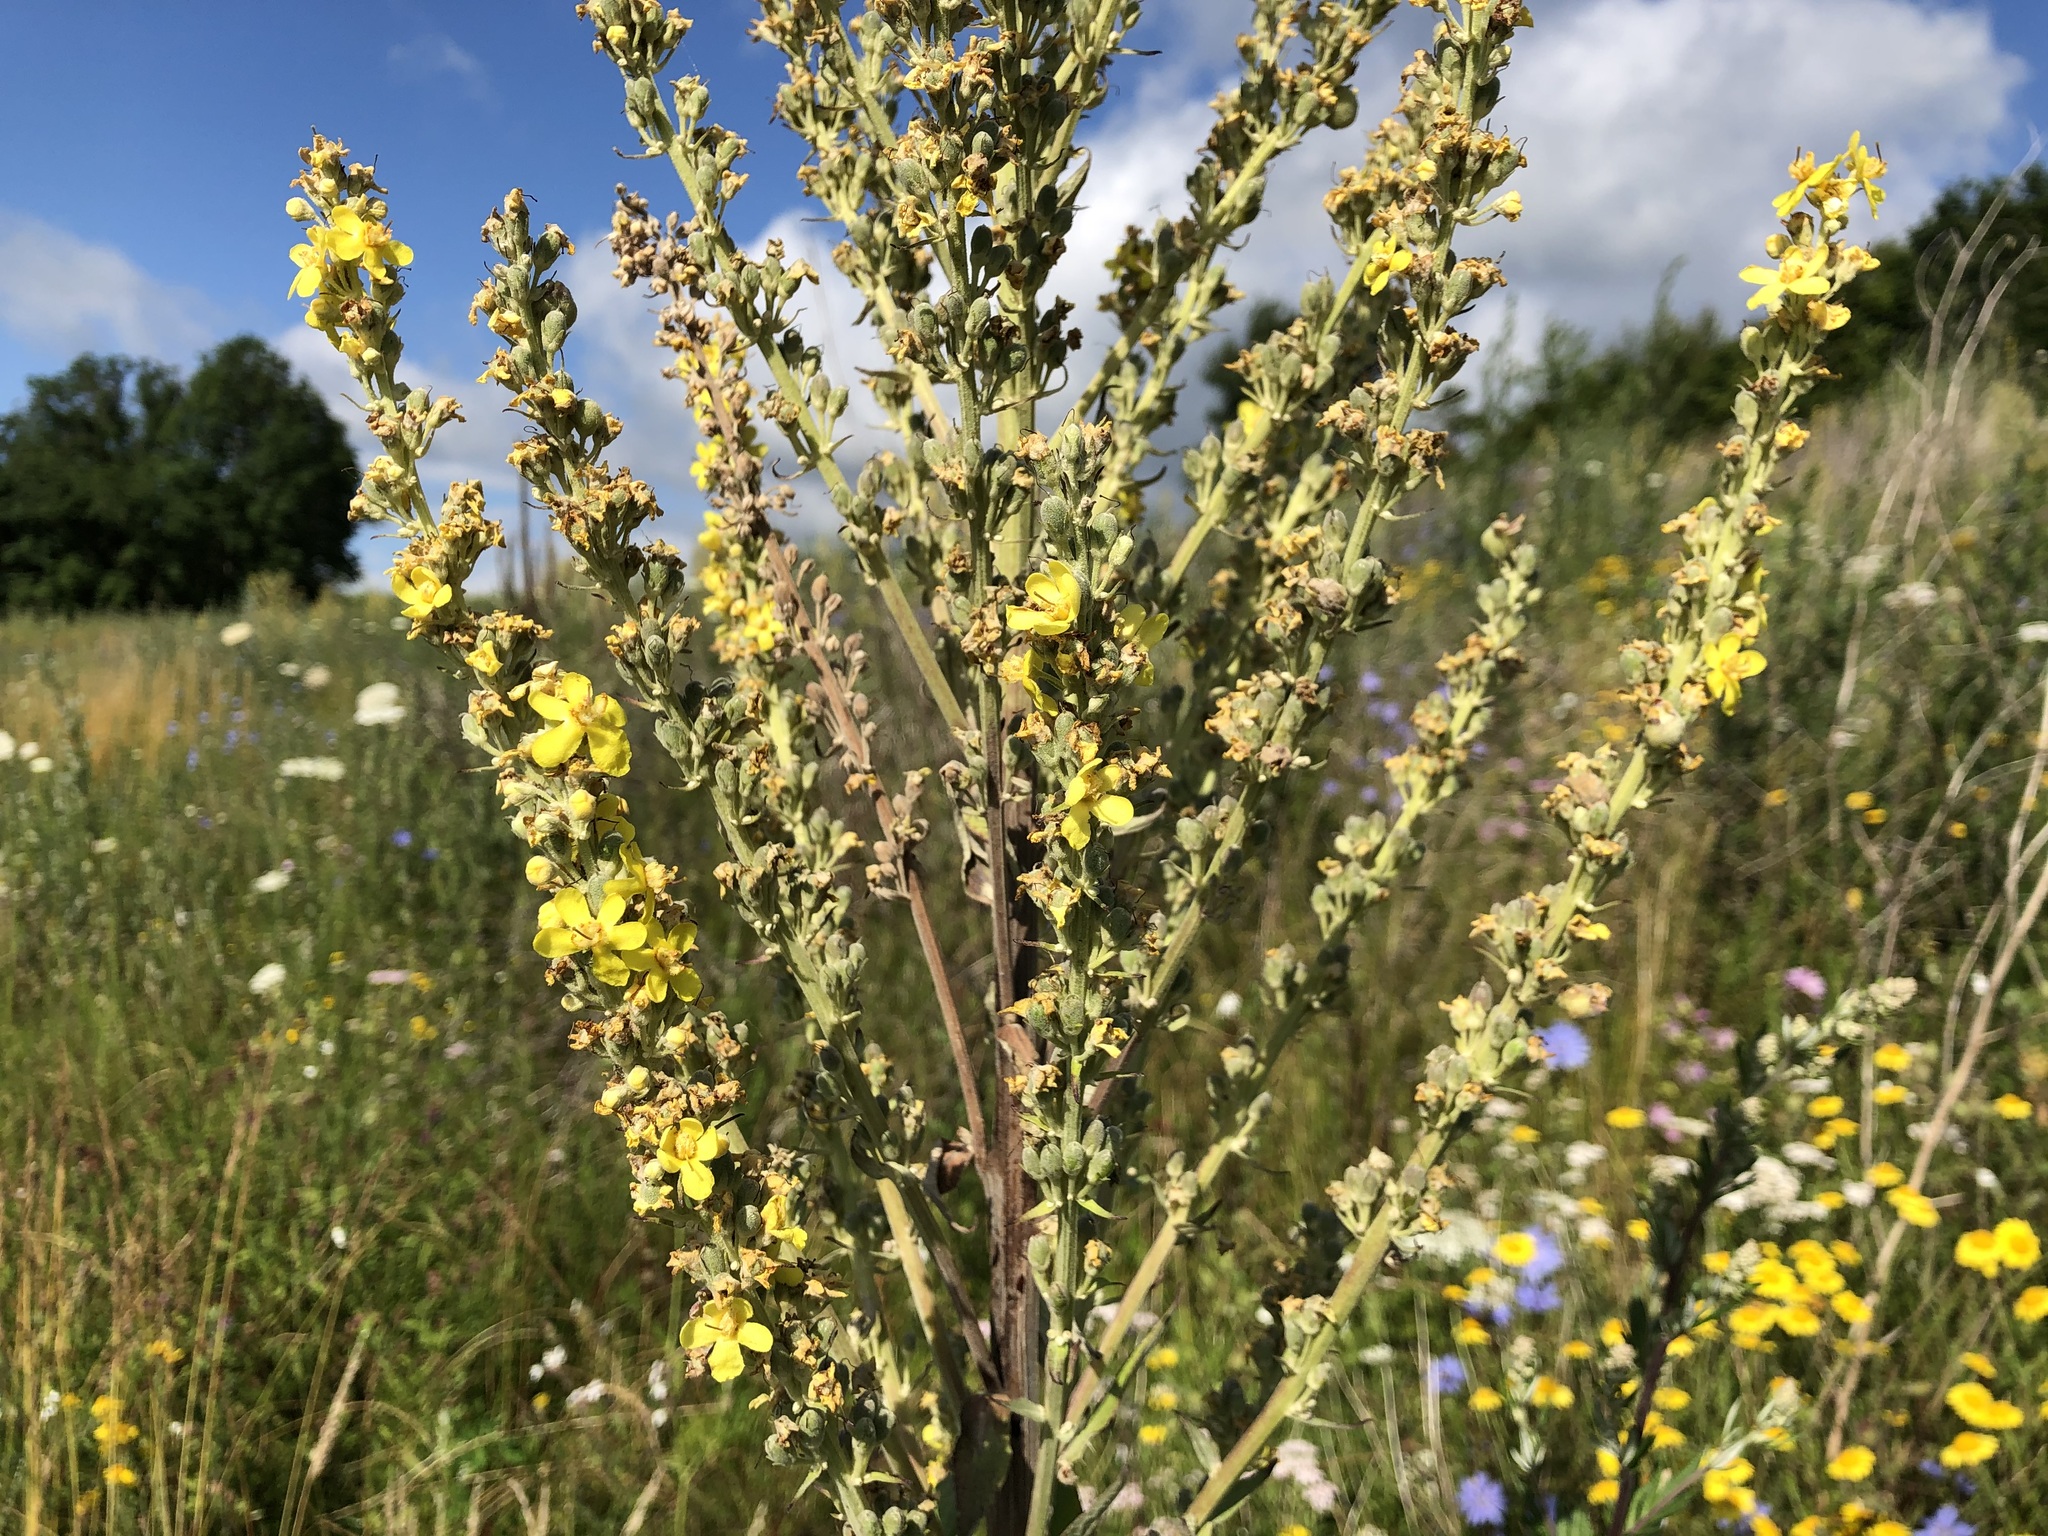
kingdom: Plantae
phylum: Tracheophyta
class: Magnoliopsida
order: Lamiales
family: Scrophulariaceae
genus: Verbascum
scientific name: Verbascum lychnitis
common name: White mullein
